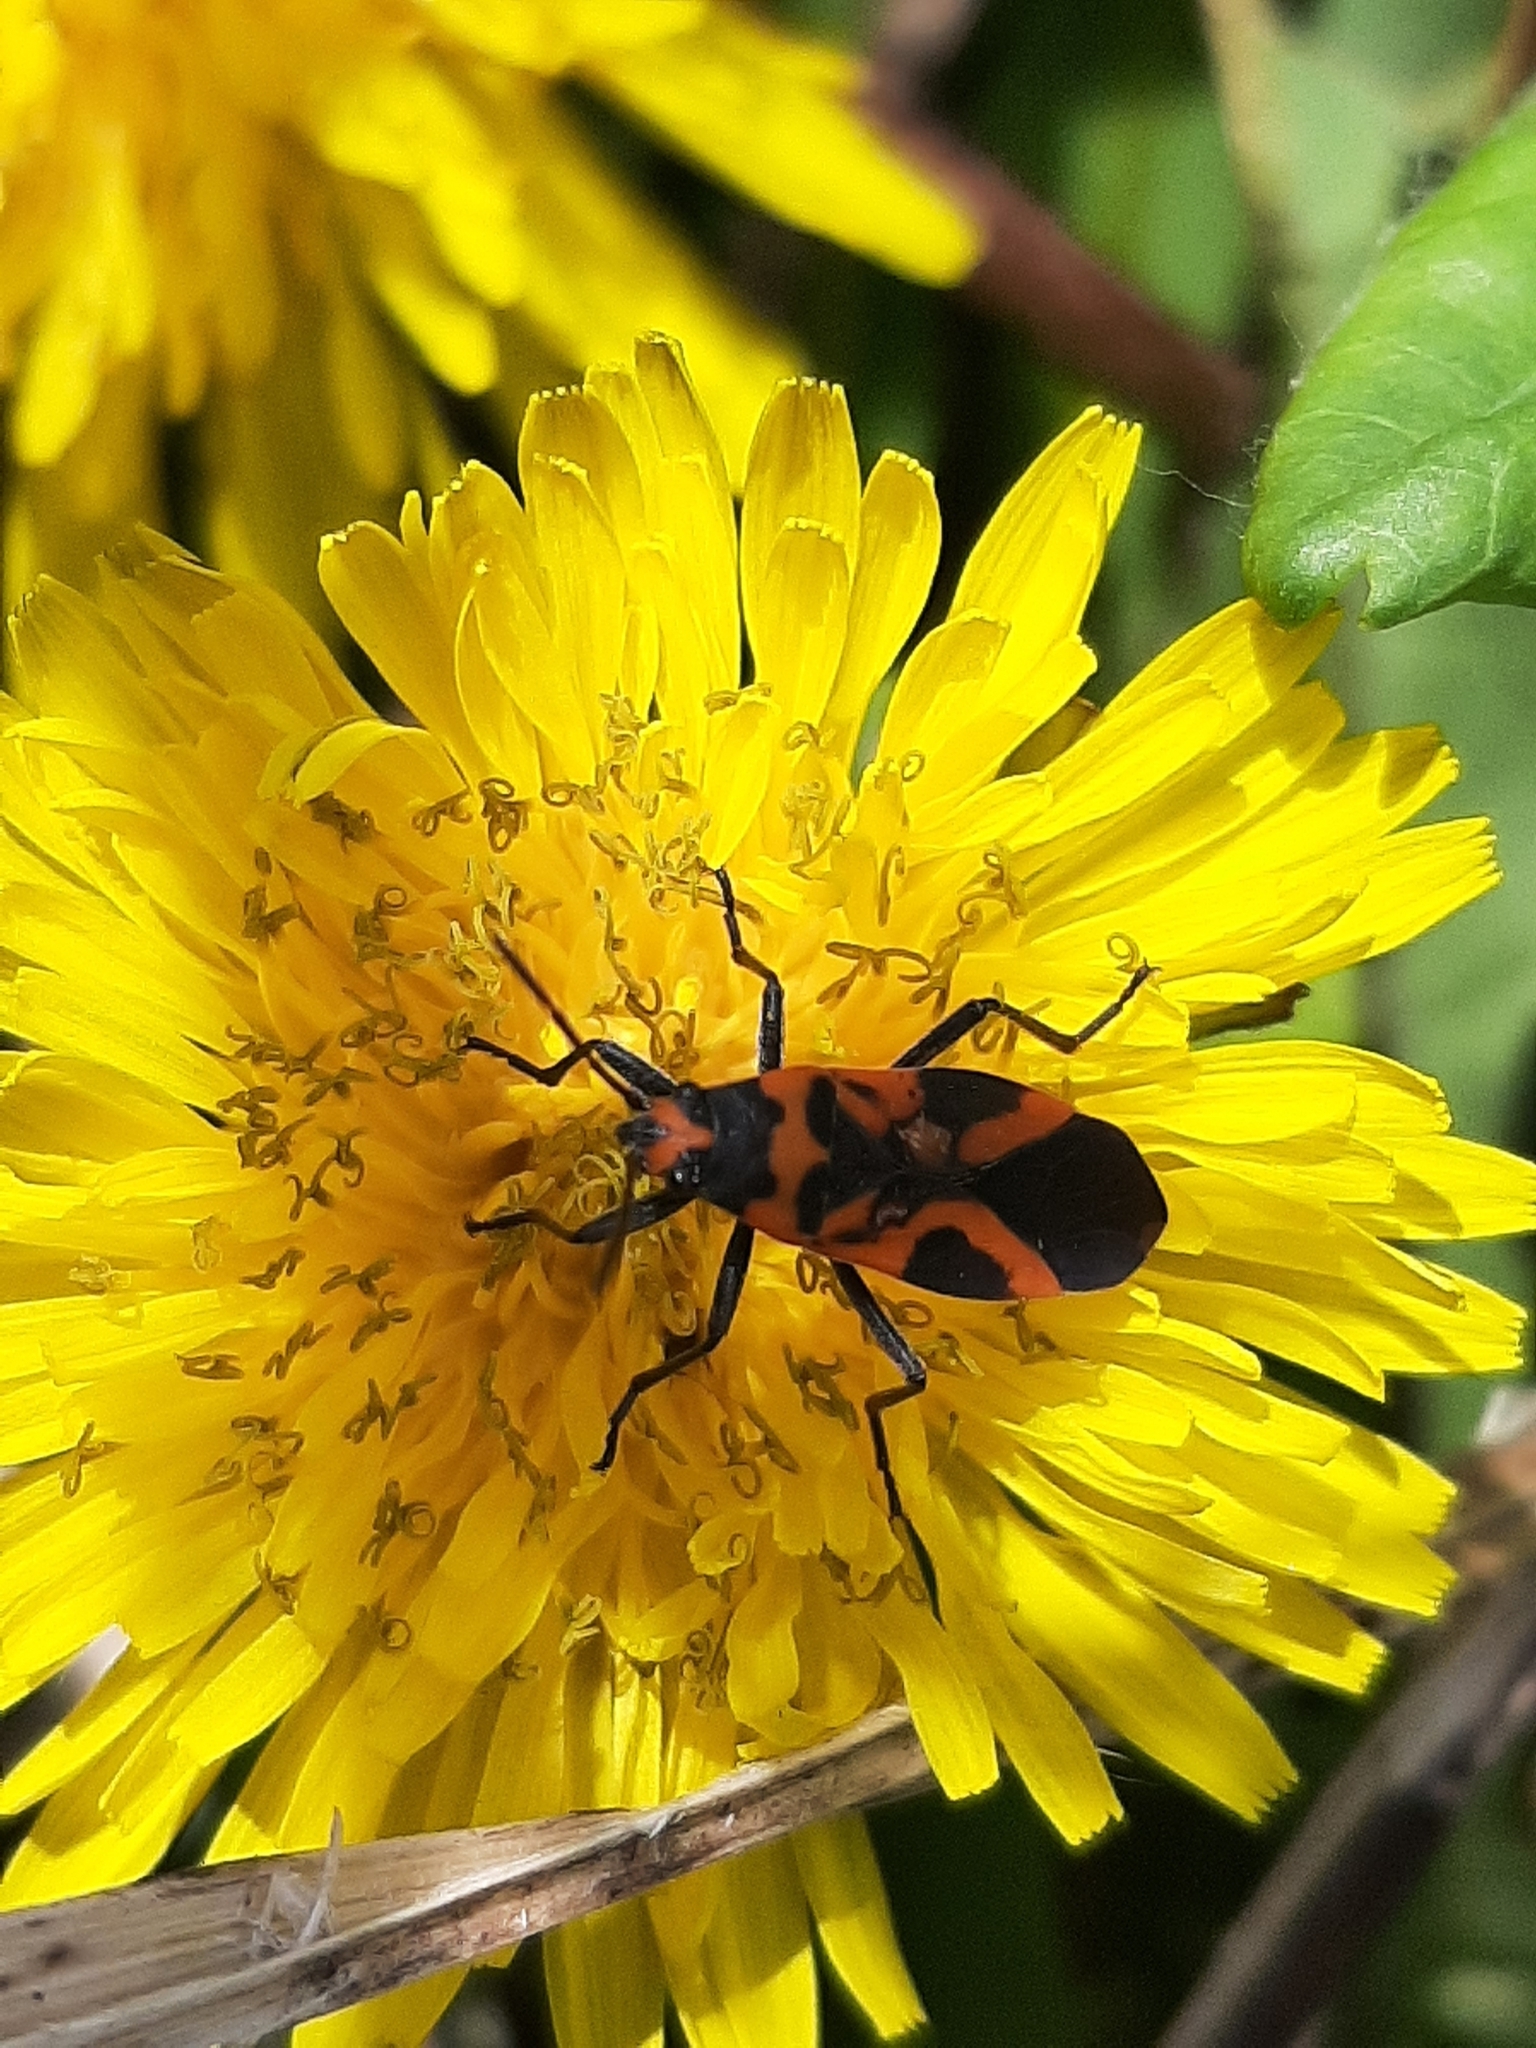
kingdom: Animalia
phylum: Arthropoda
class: Insecta
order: Hemiptera
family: Lygaeidae
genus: Lygaeus
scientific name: Lygaeus turcicus
